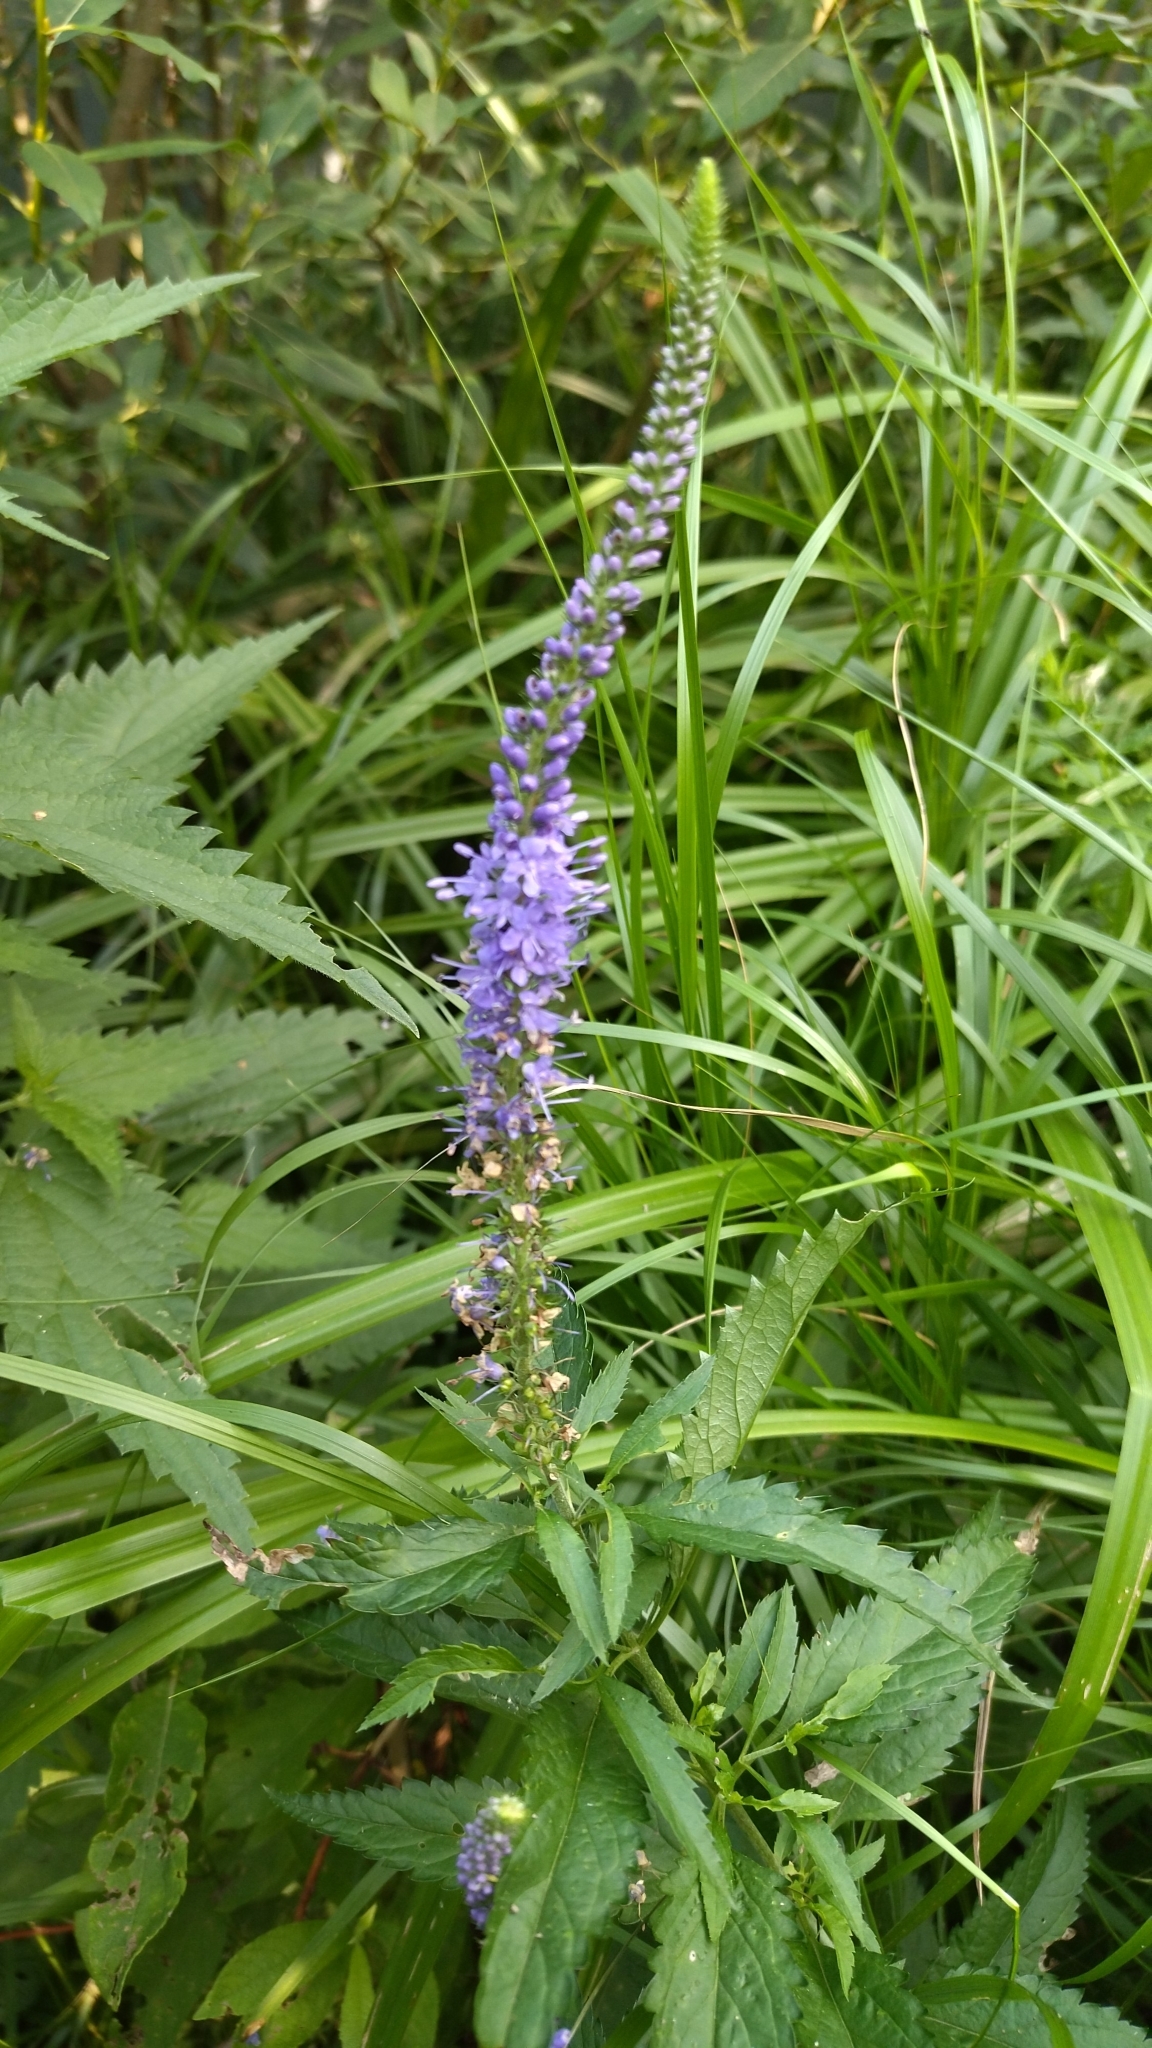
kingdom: Plantae
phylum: Tracheophyta
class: Magnoliopsida
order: Lamiales
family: Plantaginaceae
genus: Veronica
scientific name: Veronica longifolia
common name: Garden speedwell
